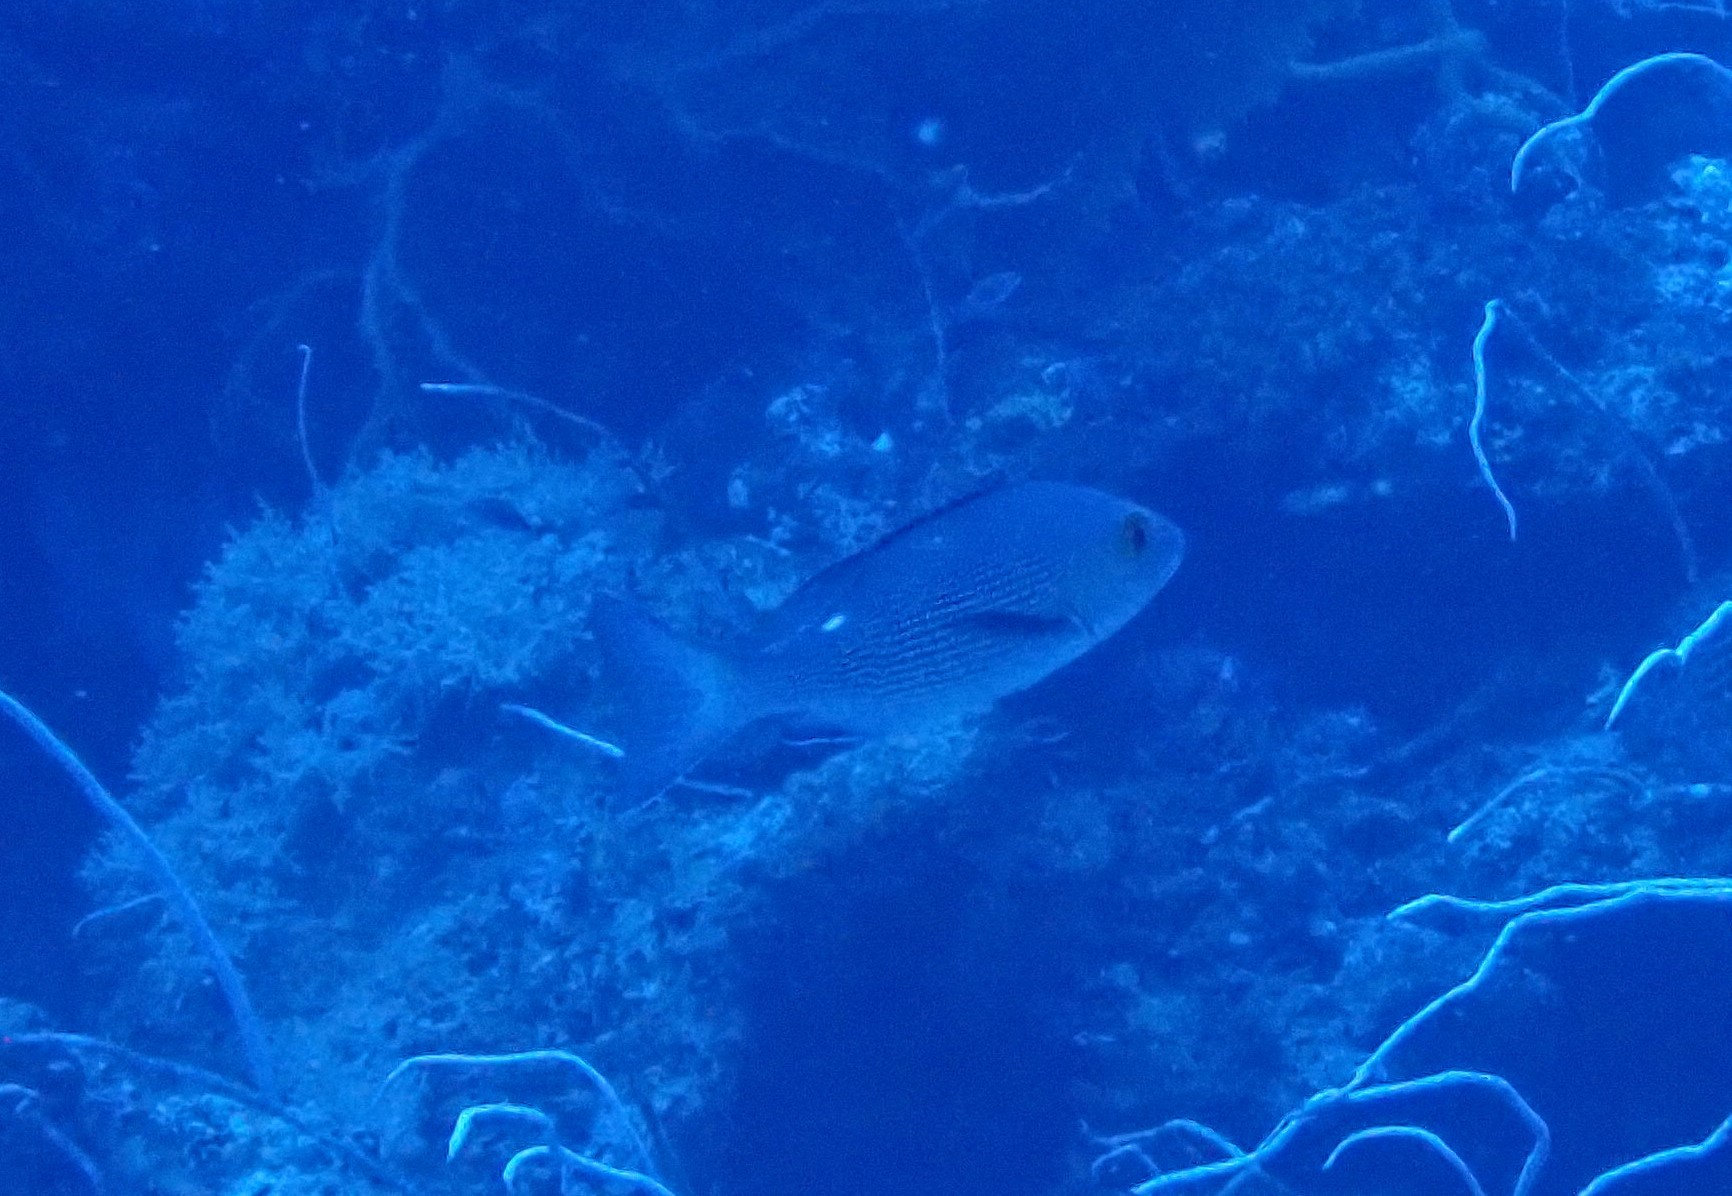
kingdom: Animalia
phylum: Chordata
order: Perciformes
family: Lutjanidae
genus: Lutjanus
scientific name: Lutjanus bohar
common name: Red bass
